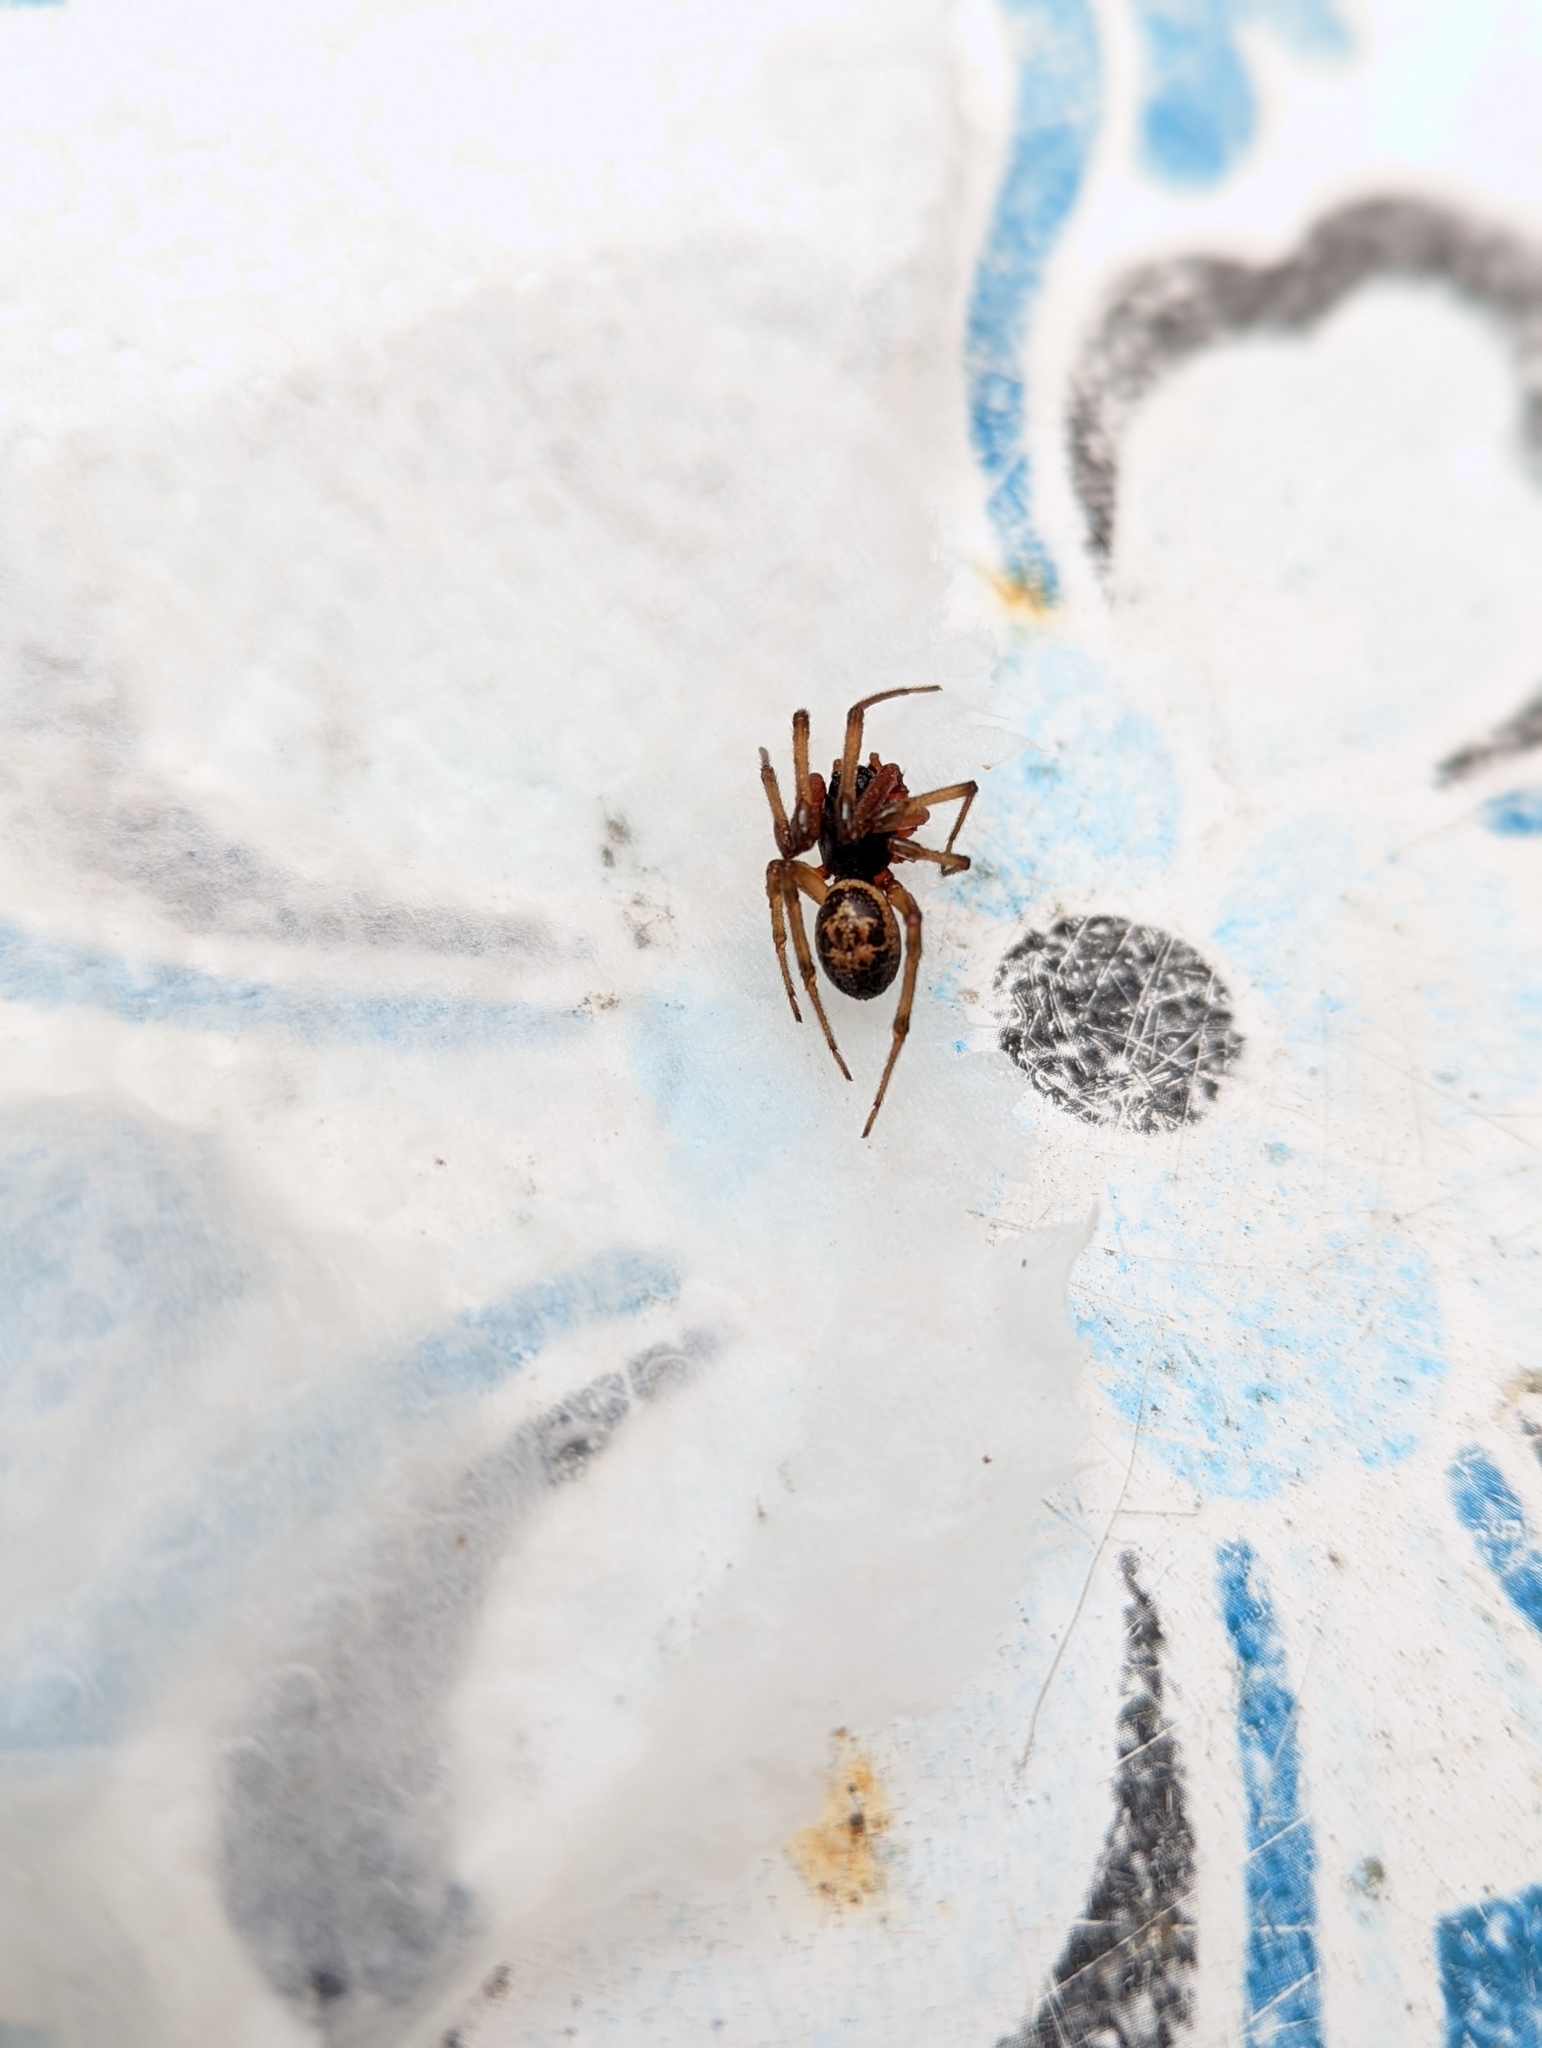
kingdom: Animalia
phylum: Arthropoda
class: Arachnida
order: Araneae
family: Theridiidae
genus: Steatoda
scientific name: Steatoda nobilis
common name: Cobweb weaver
